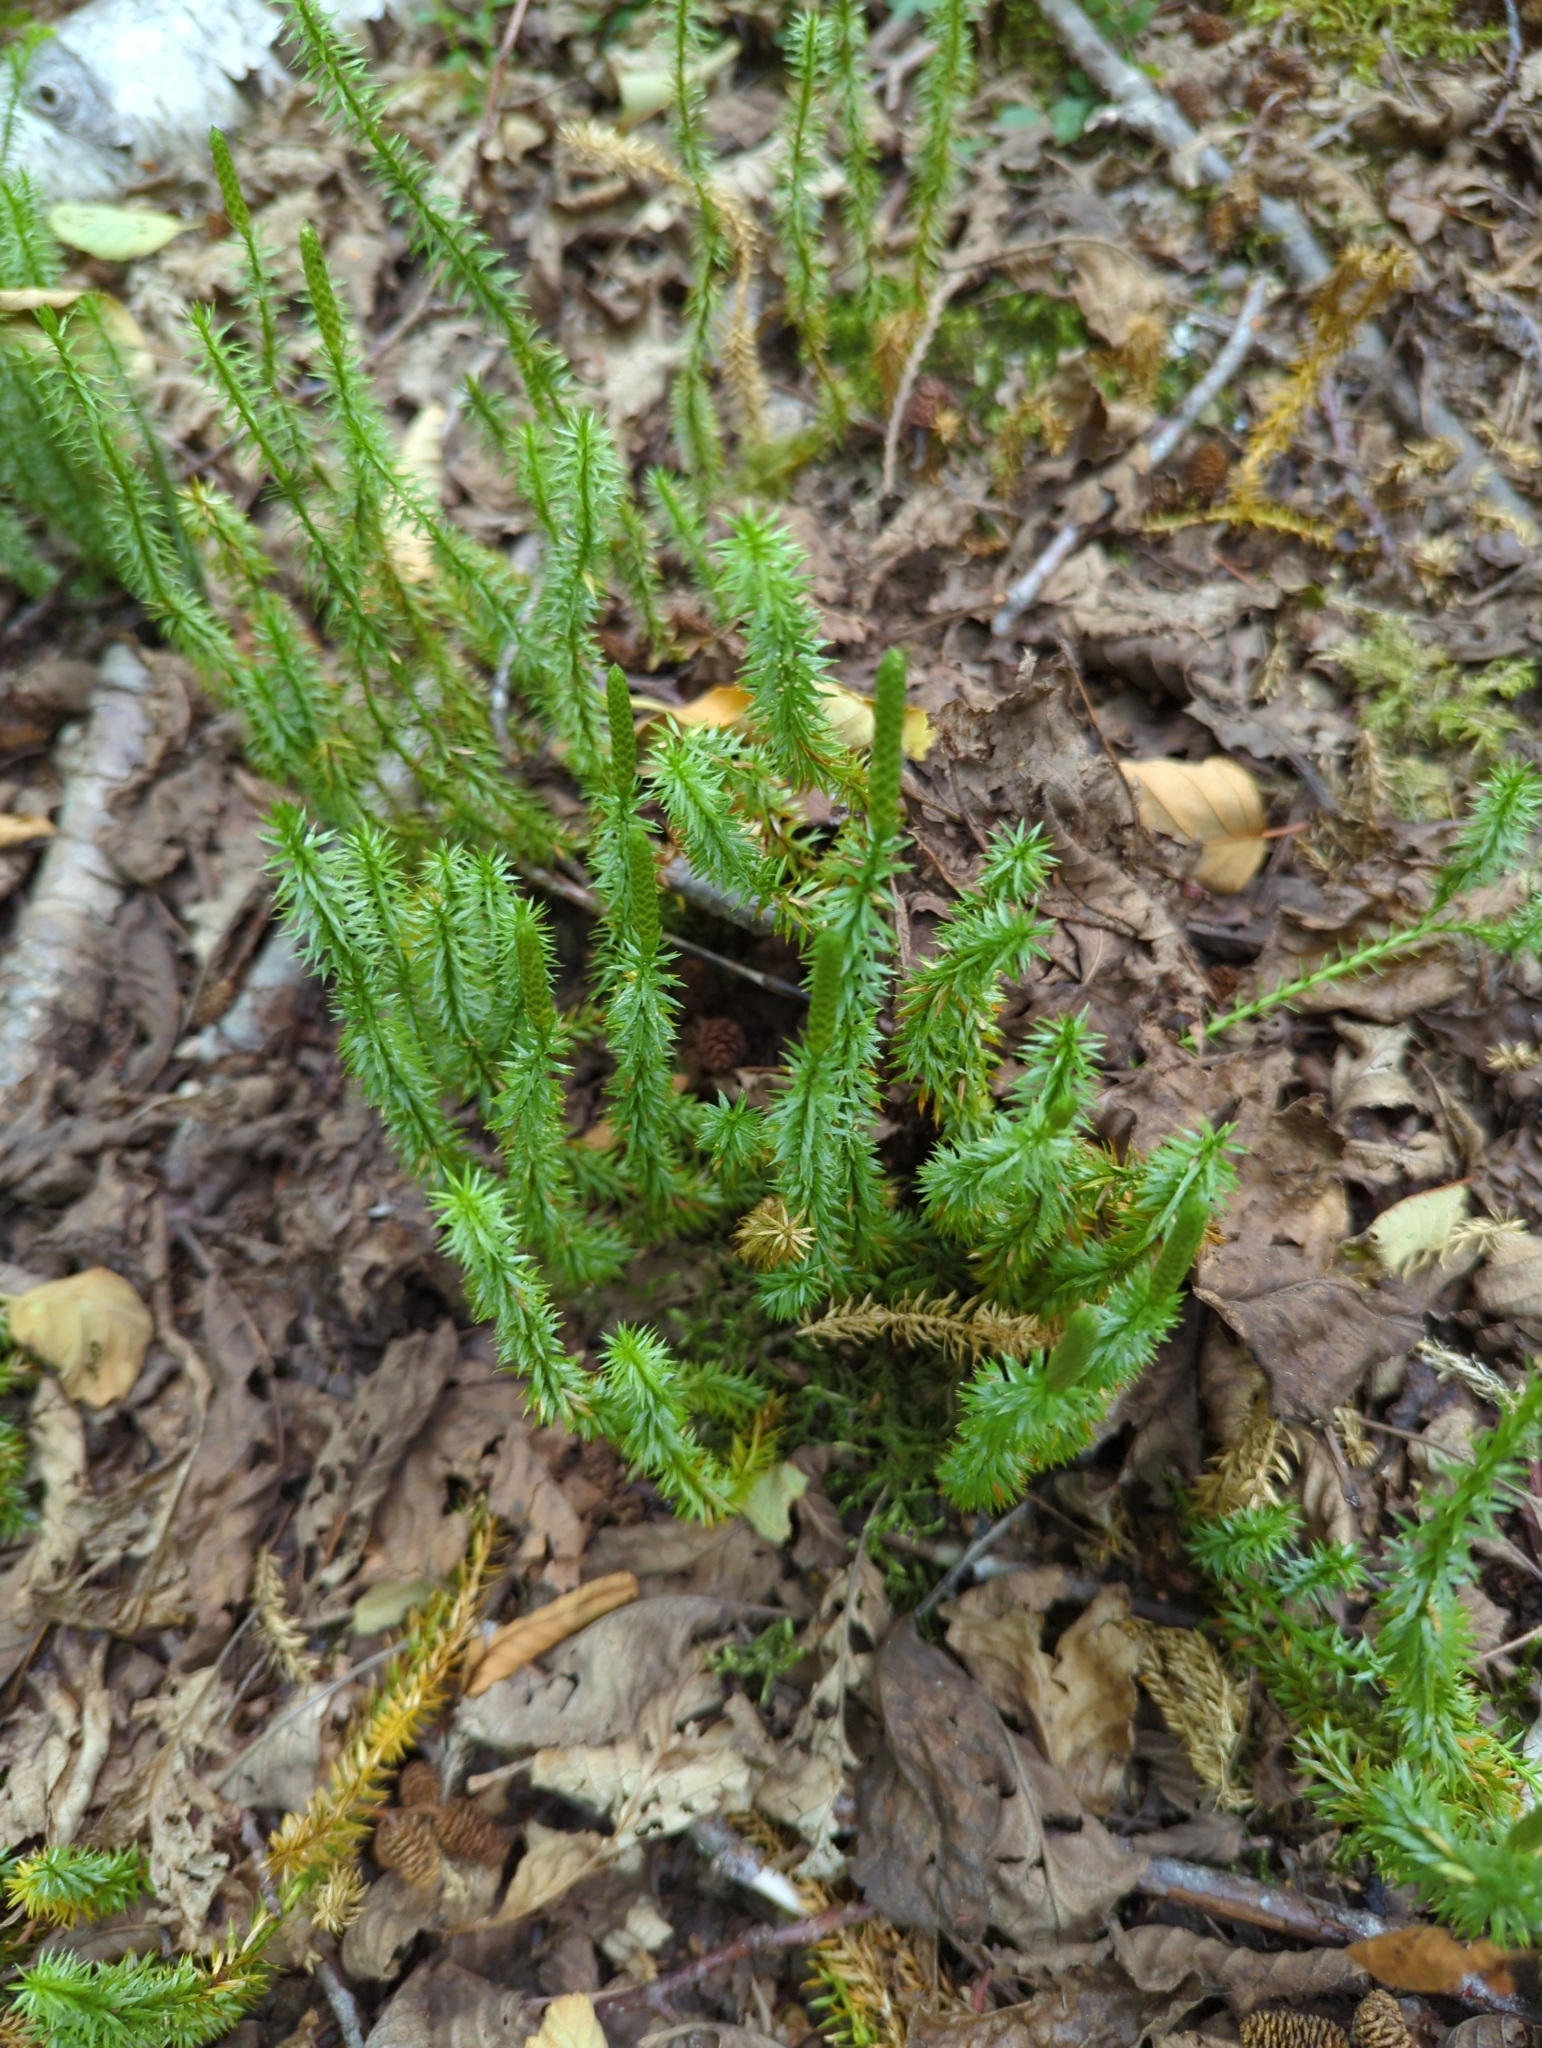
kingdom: Plantae
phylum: Tracheophyta
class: Lycopodiopsida
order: Lycopodiales
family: Lycopodiaceae
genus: Spinulum
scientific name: Spinulum annotinum
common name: Interrupted club-moss
